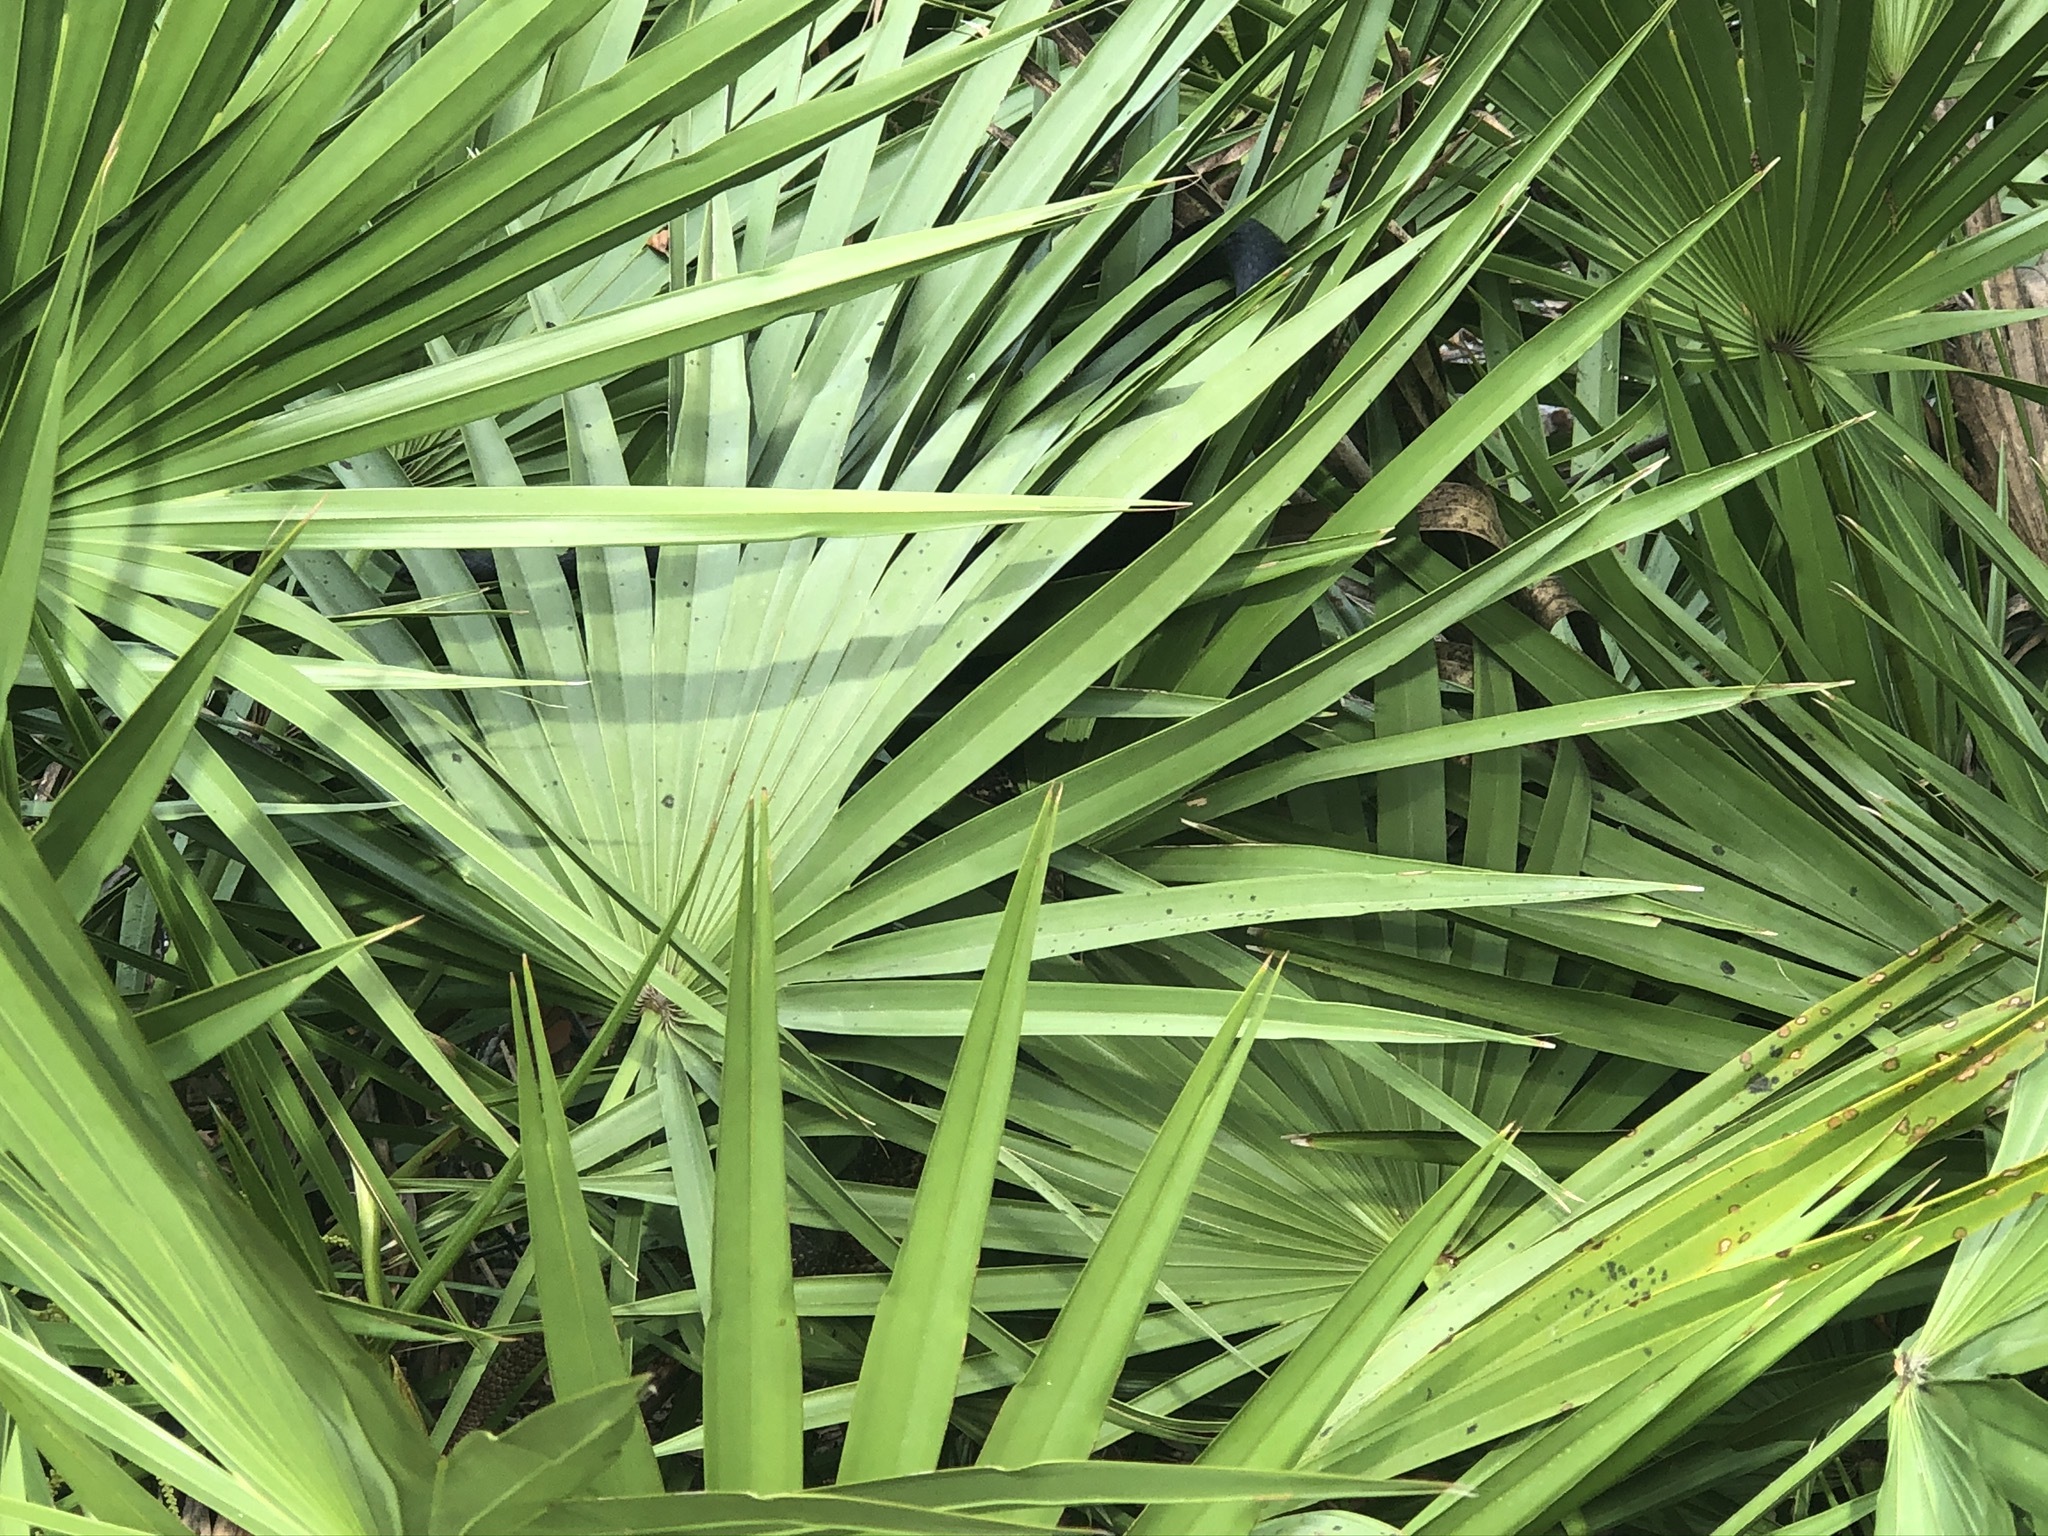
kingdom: Animalia
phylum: Chordata
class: Squamata
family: Colubridae
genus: Masticophis
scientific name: Masticophis flagellum
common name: Coachwhip
